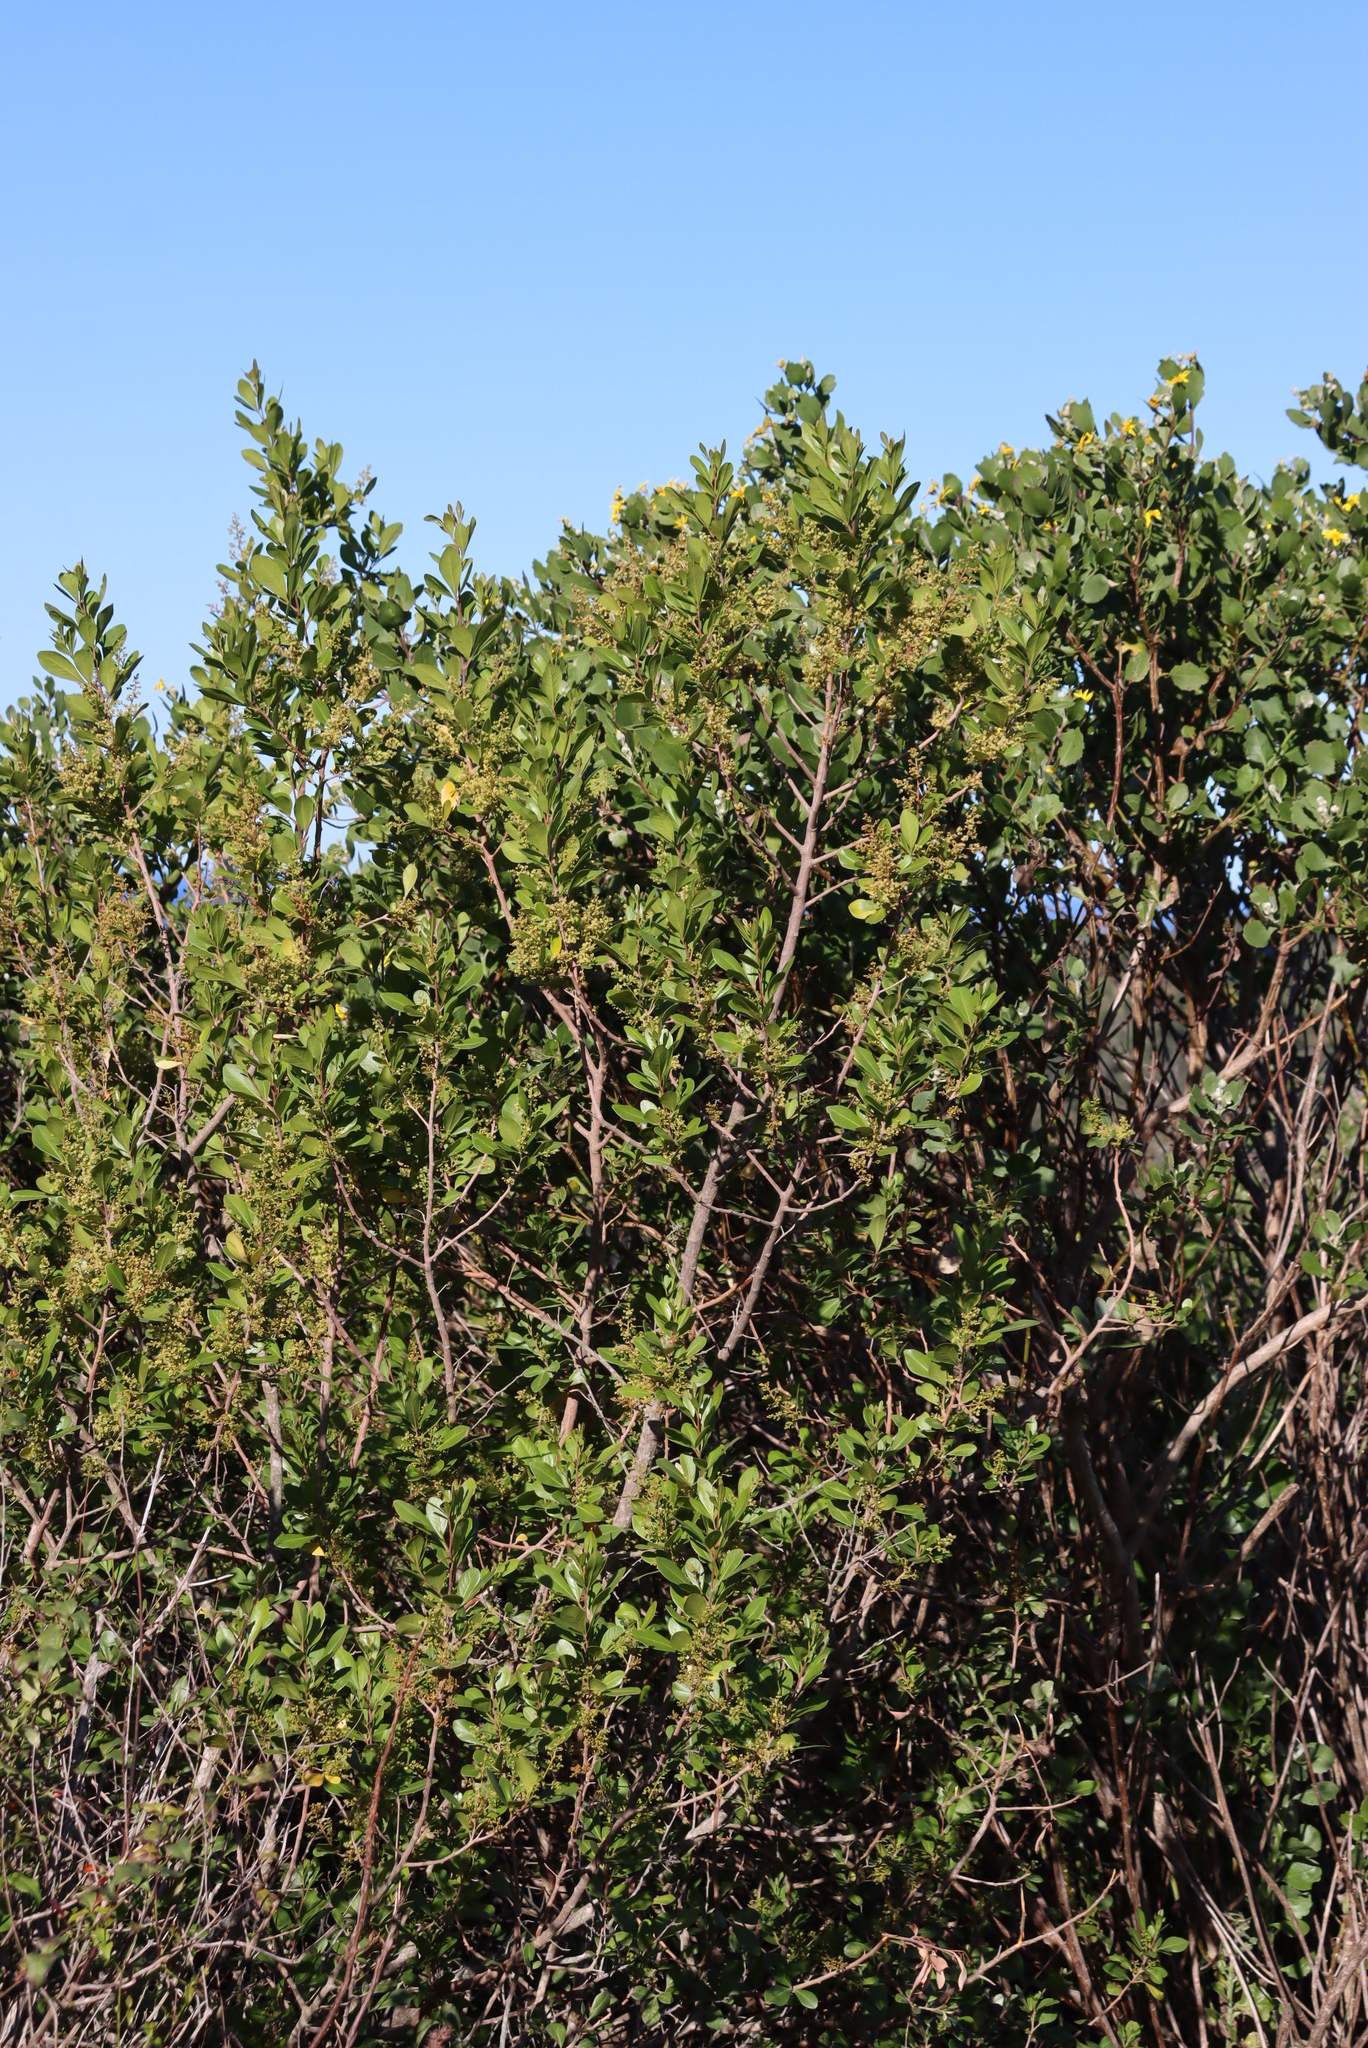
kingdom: Plantae
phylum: Tracheophyta
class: Magnoliopsida
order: Sapindales
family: Anacardiaceae
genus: Searsia
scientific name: Searsia lucida
